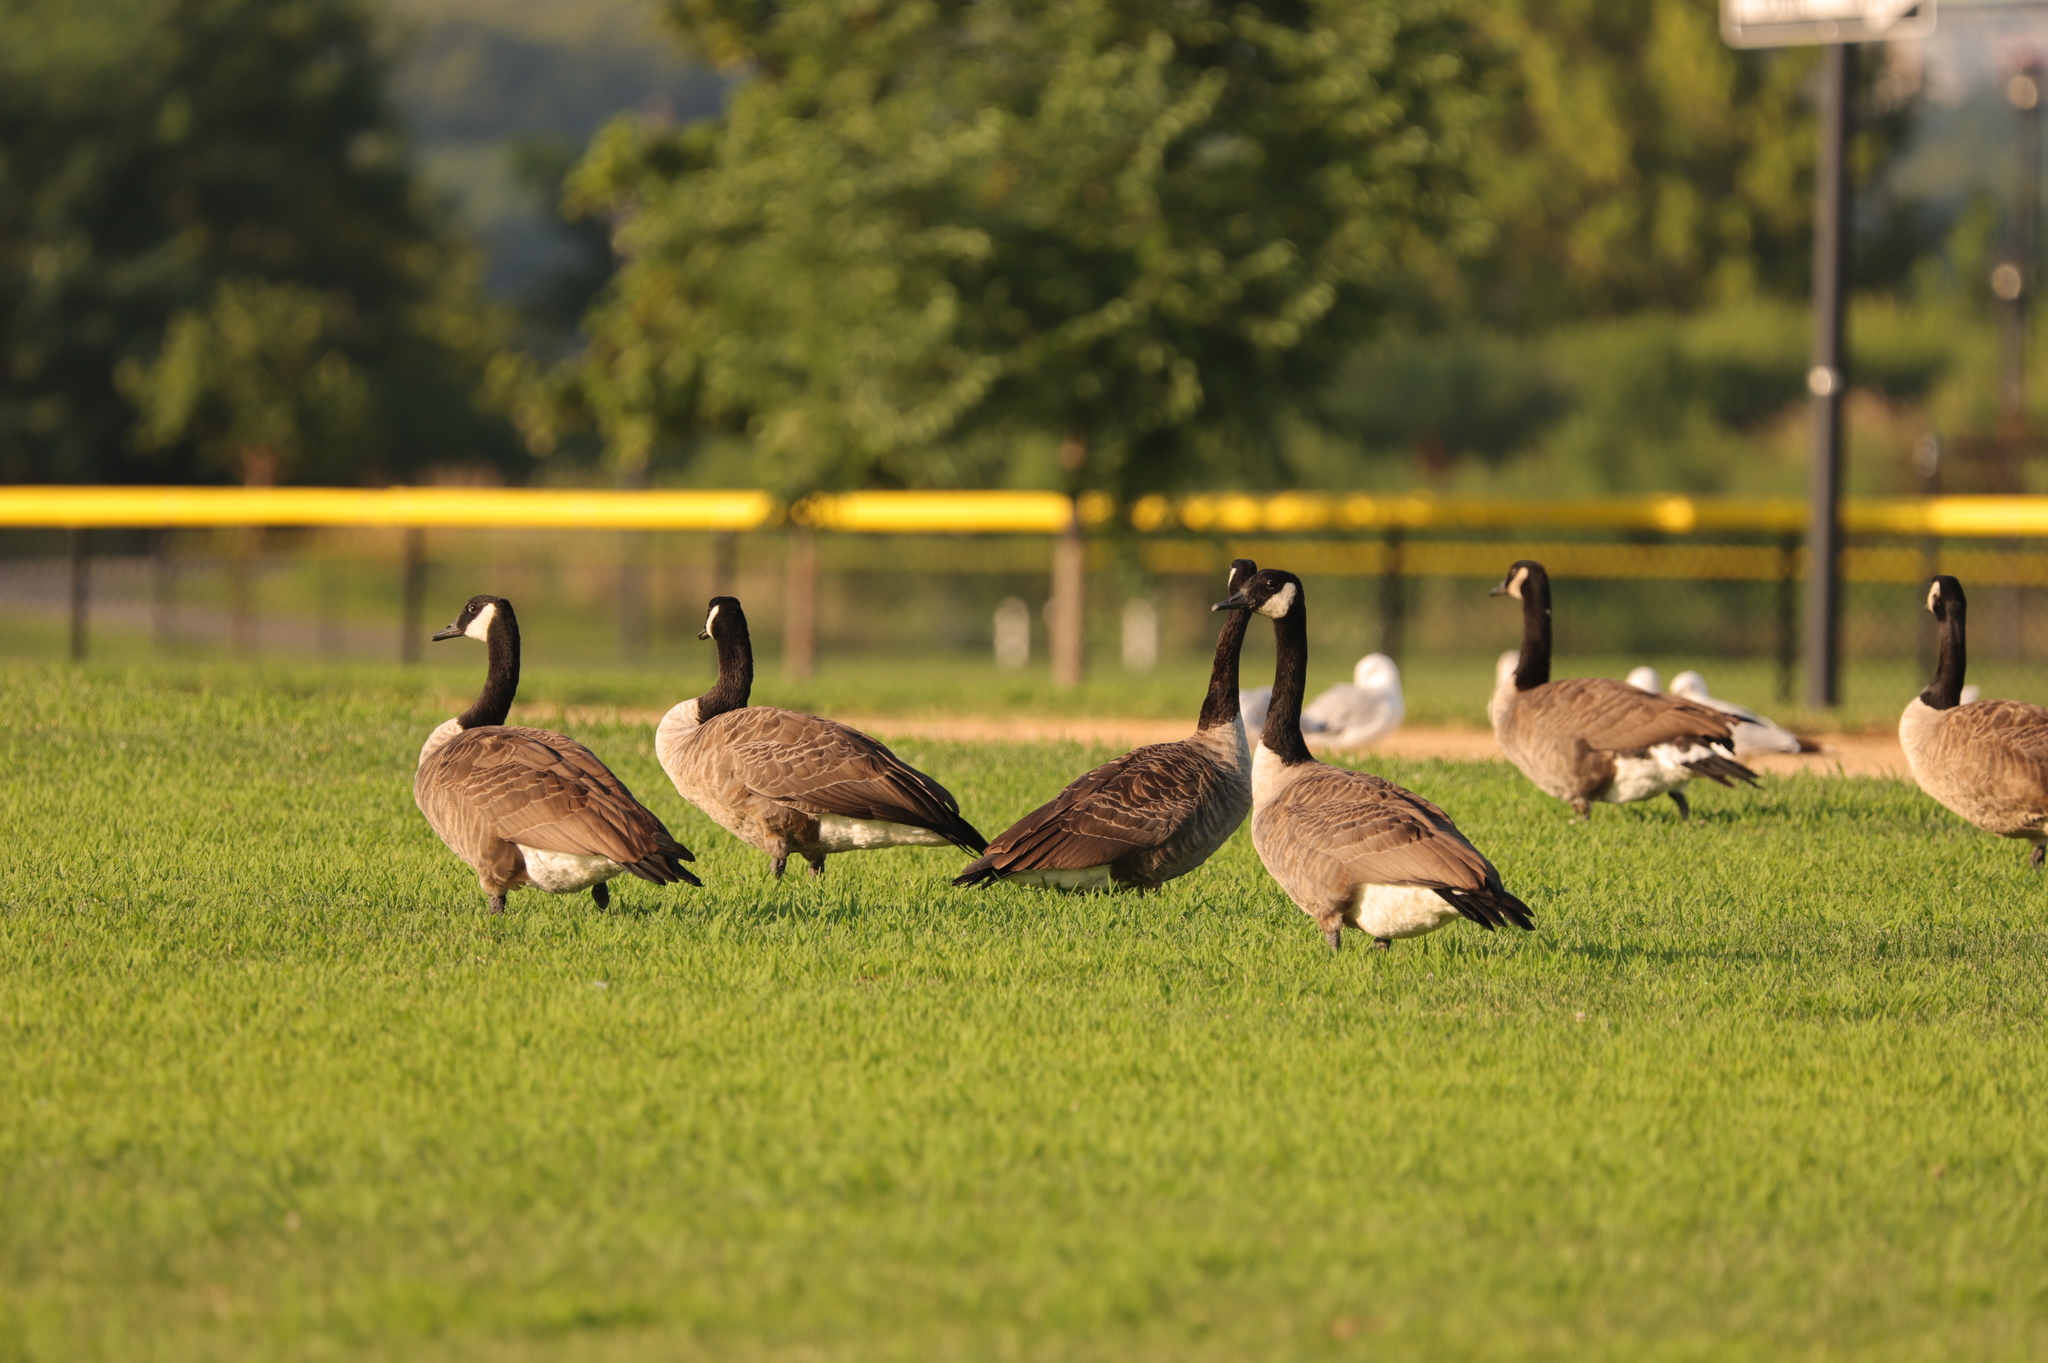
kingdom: Animalia
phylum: Chordata
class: Aves
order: Anseriformes
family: Anatidae
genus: Branta
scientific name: Branta canadensis
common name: Canada goose
